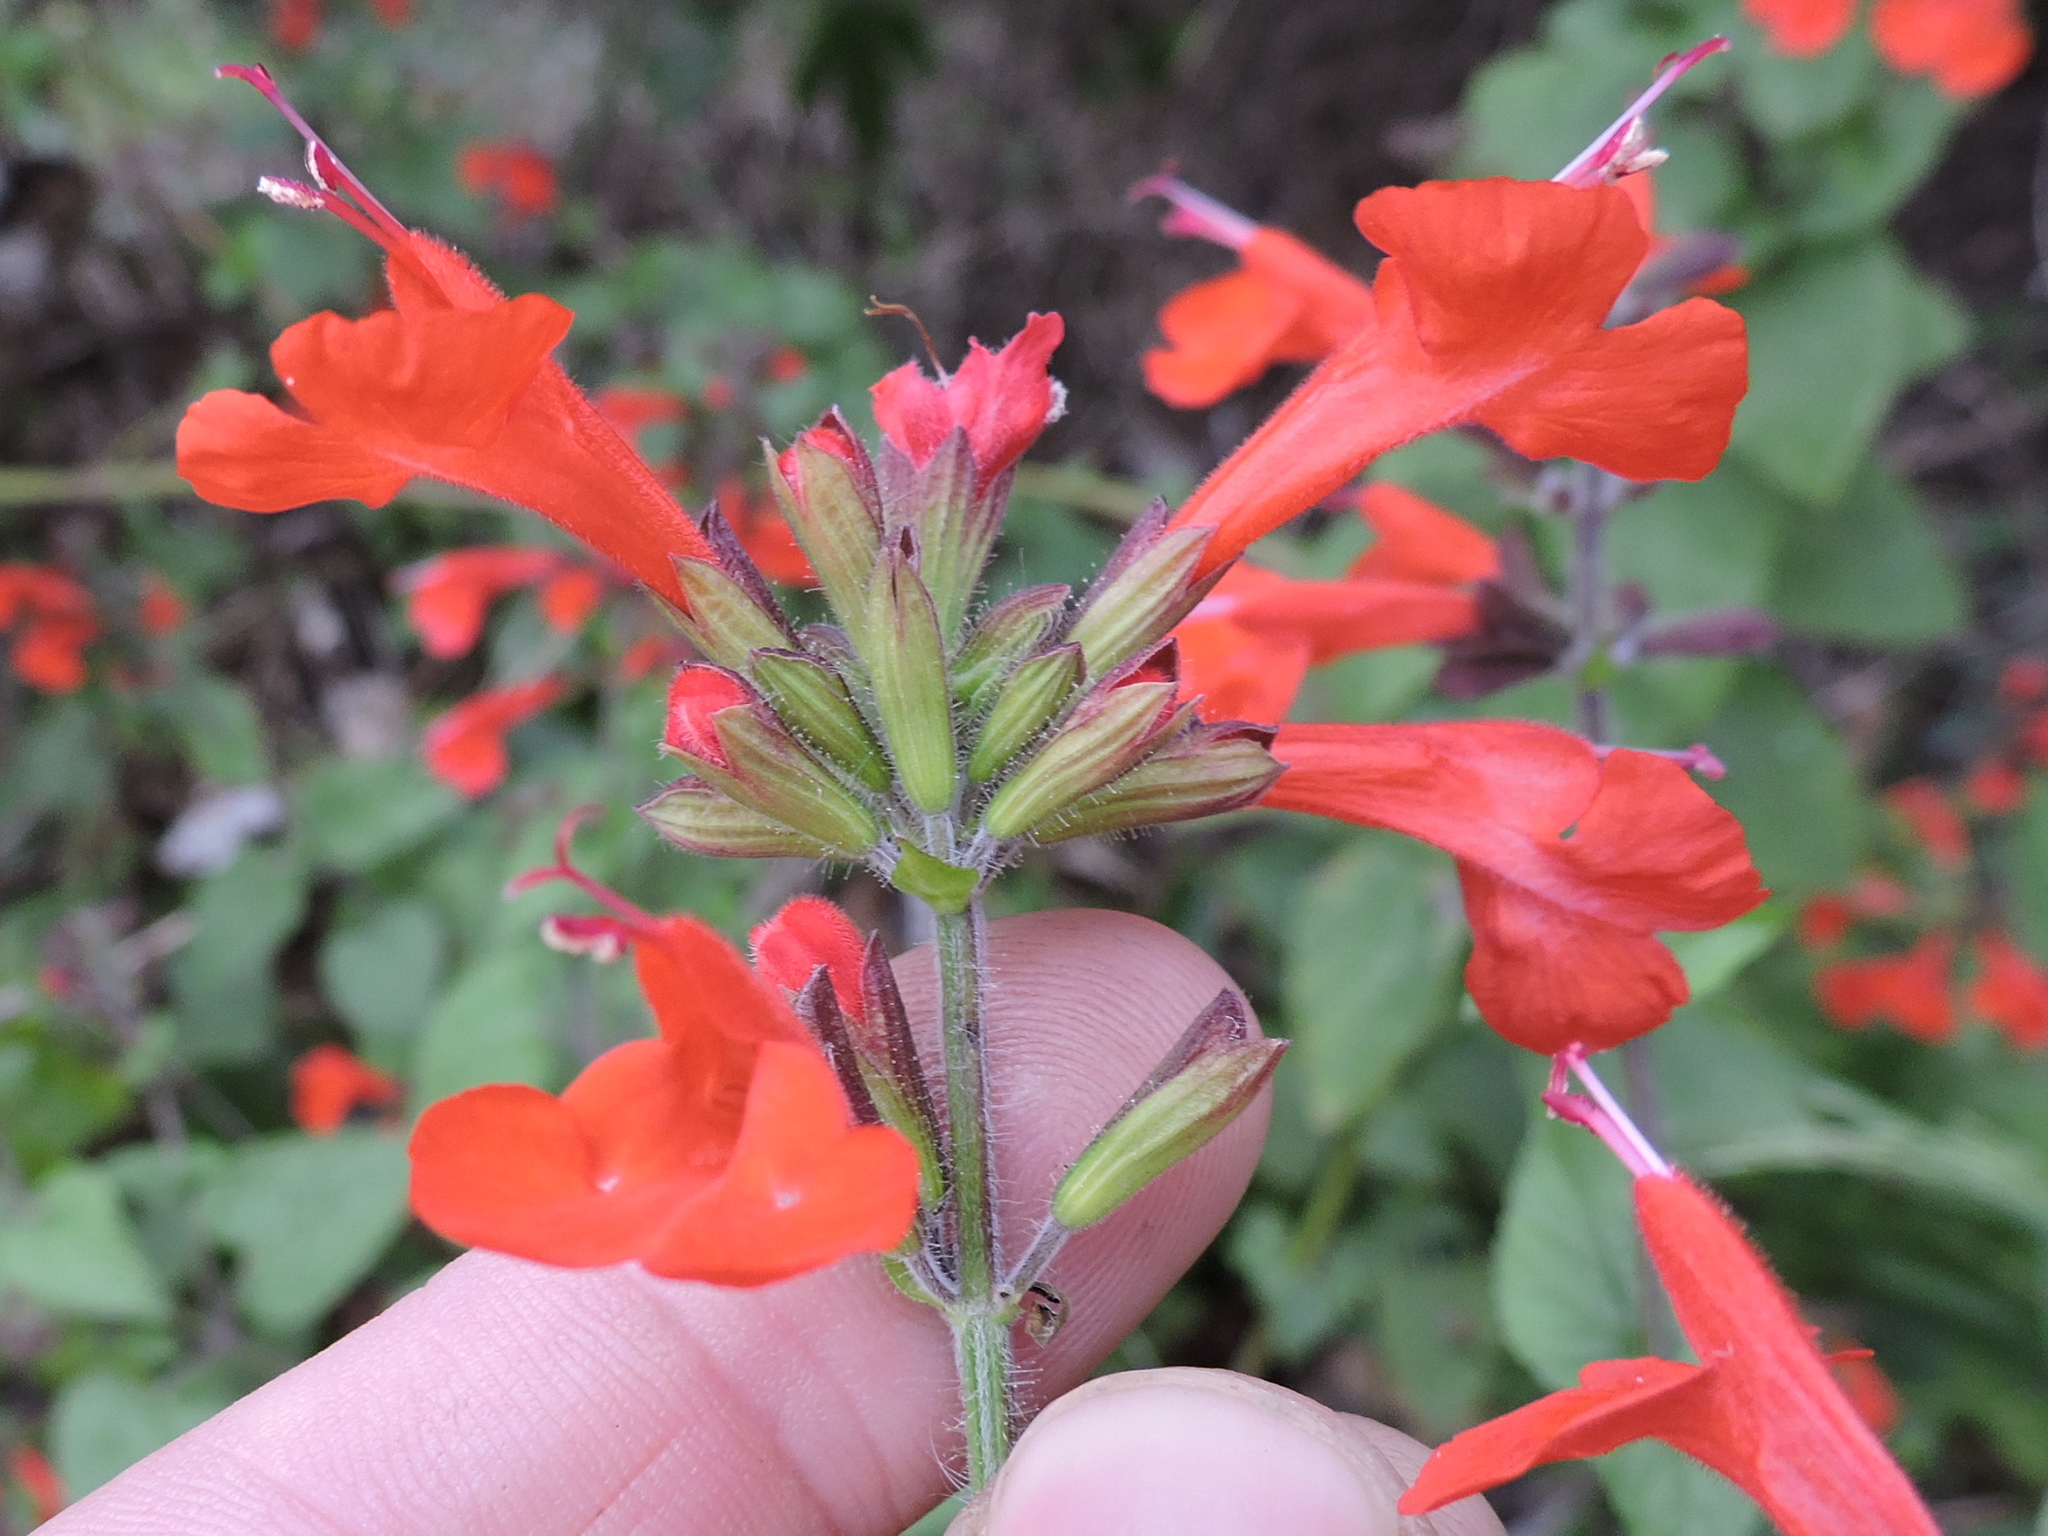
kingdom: Plantae
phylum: Tracheophyta
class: Magnoliopsida
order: Lamiales
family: Lamiaceae
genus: Salvia
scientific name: Salvia coccinea
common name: Blood sage
